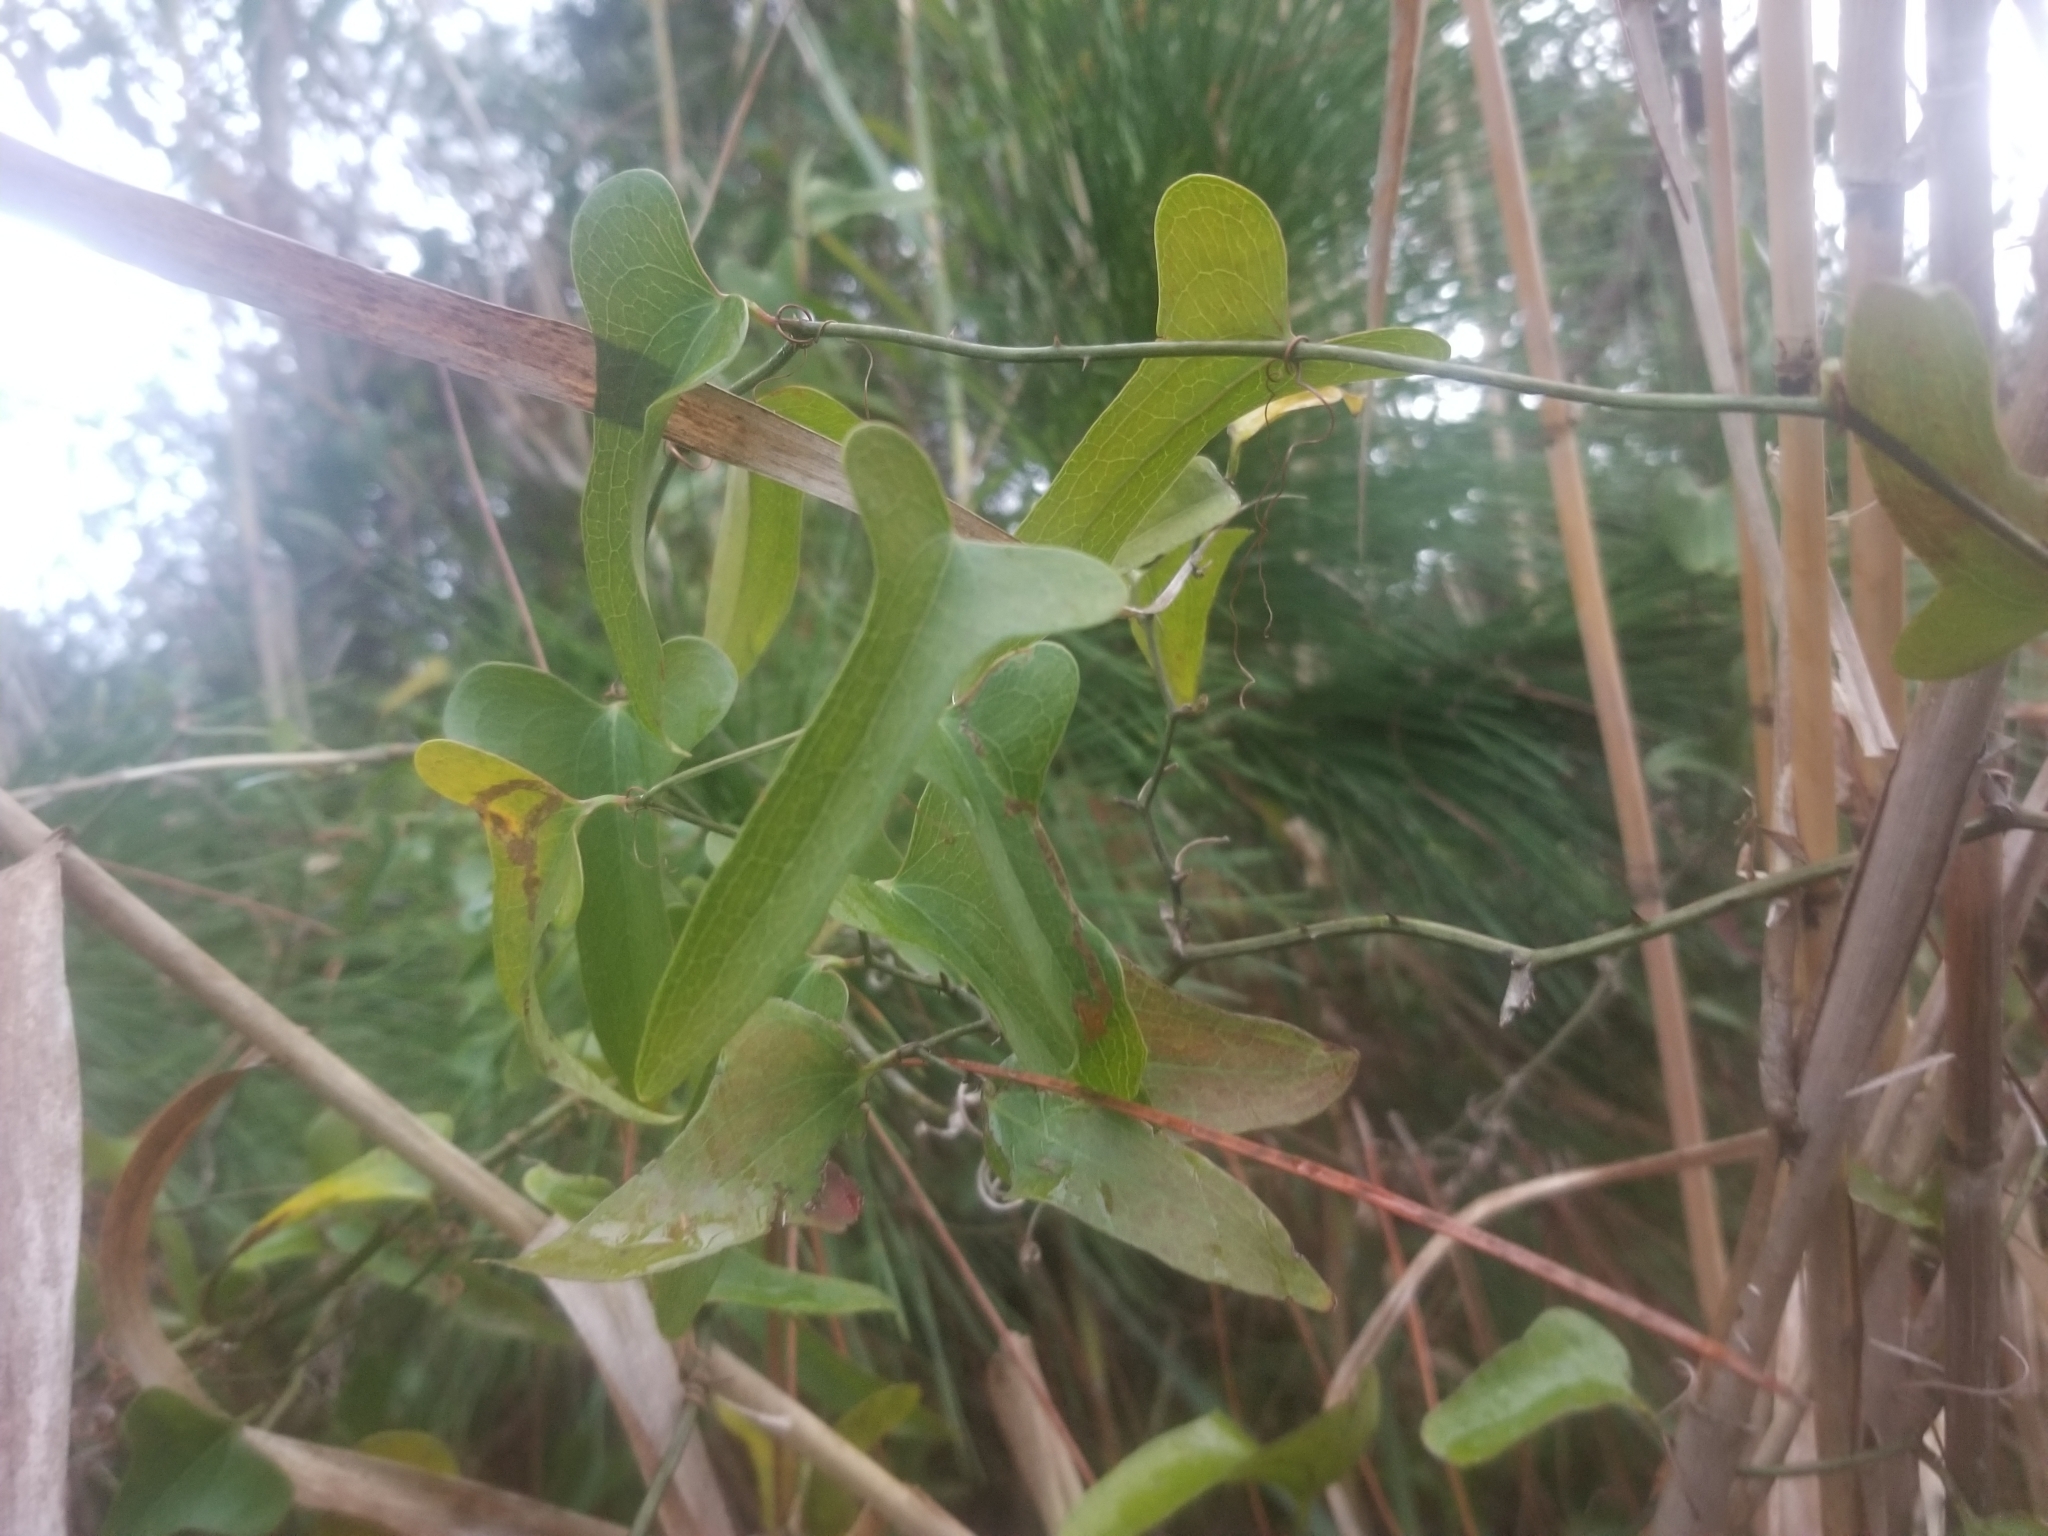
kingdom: Plantae
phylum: Tracheophyta
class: Liliopsida
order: Liliales
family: Smilacaceae
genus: Smilax
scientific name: Smilax auriculata
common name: Wild bamboo
